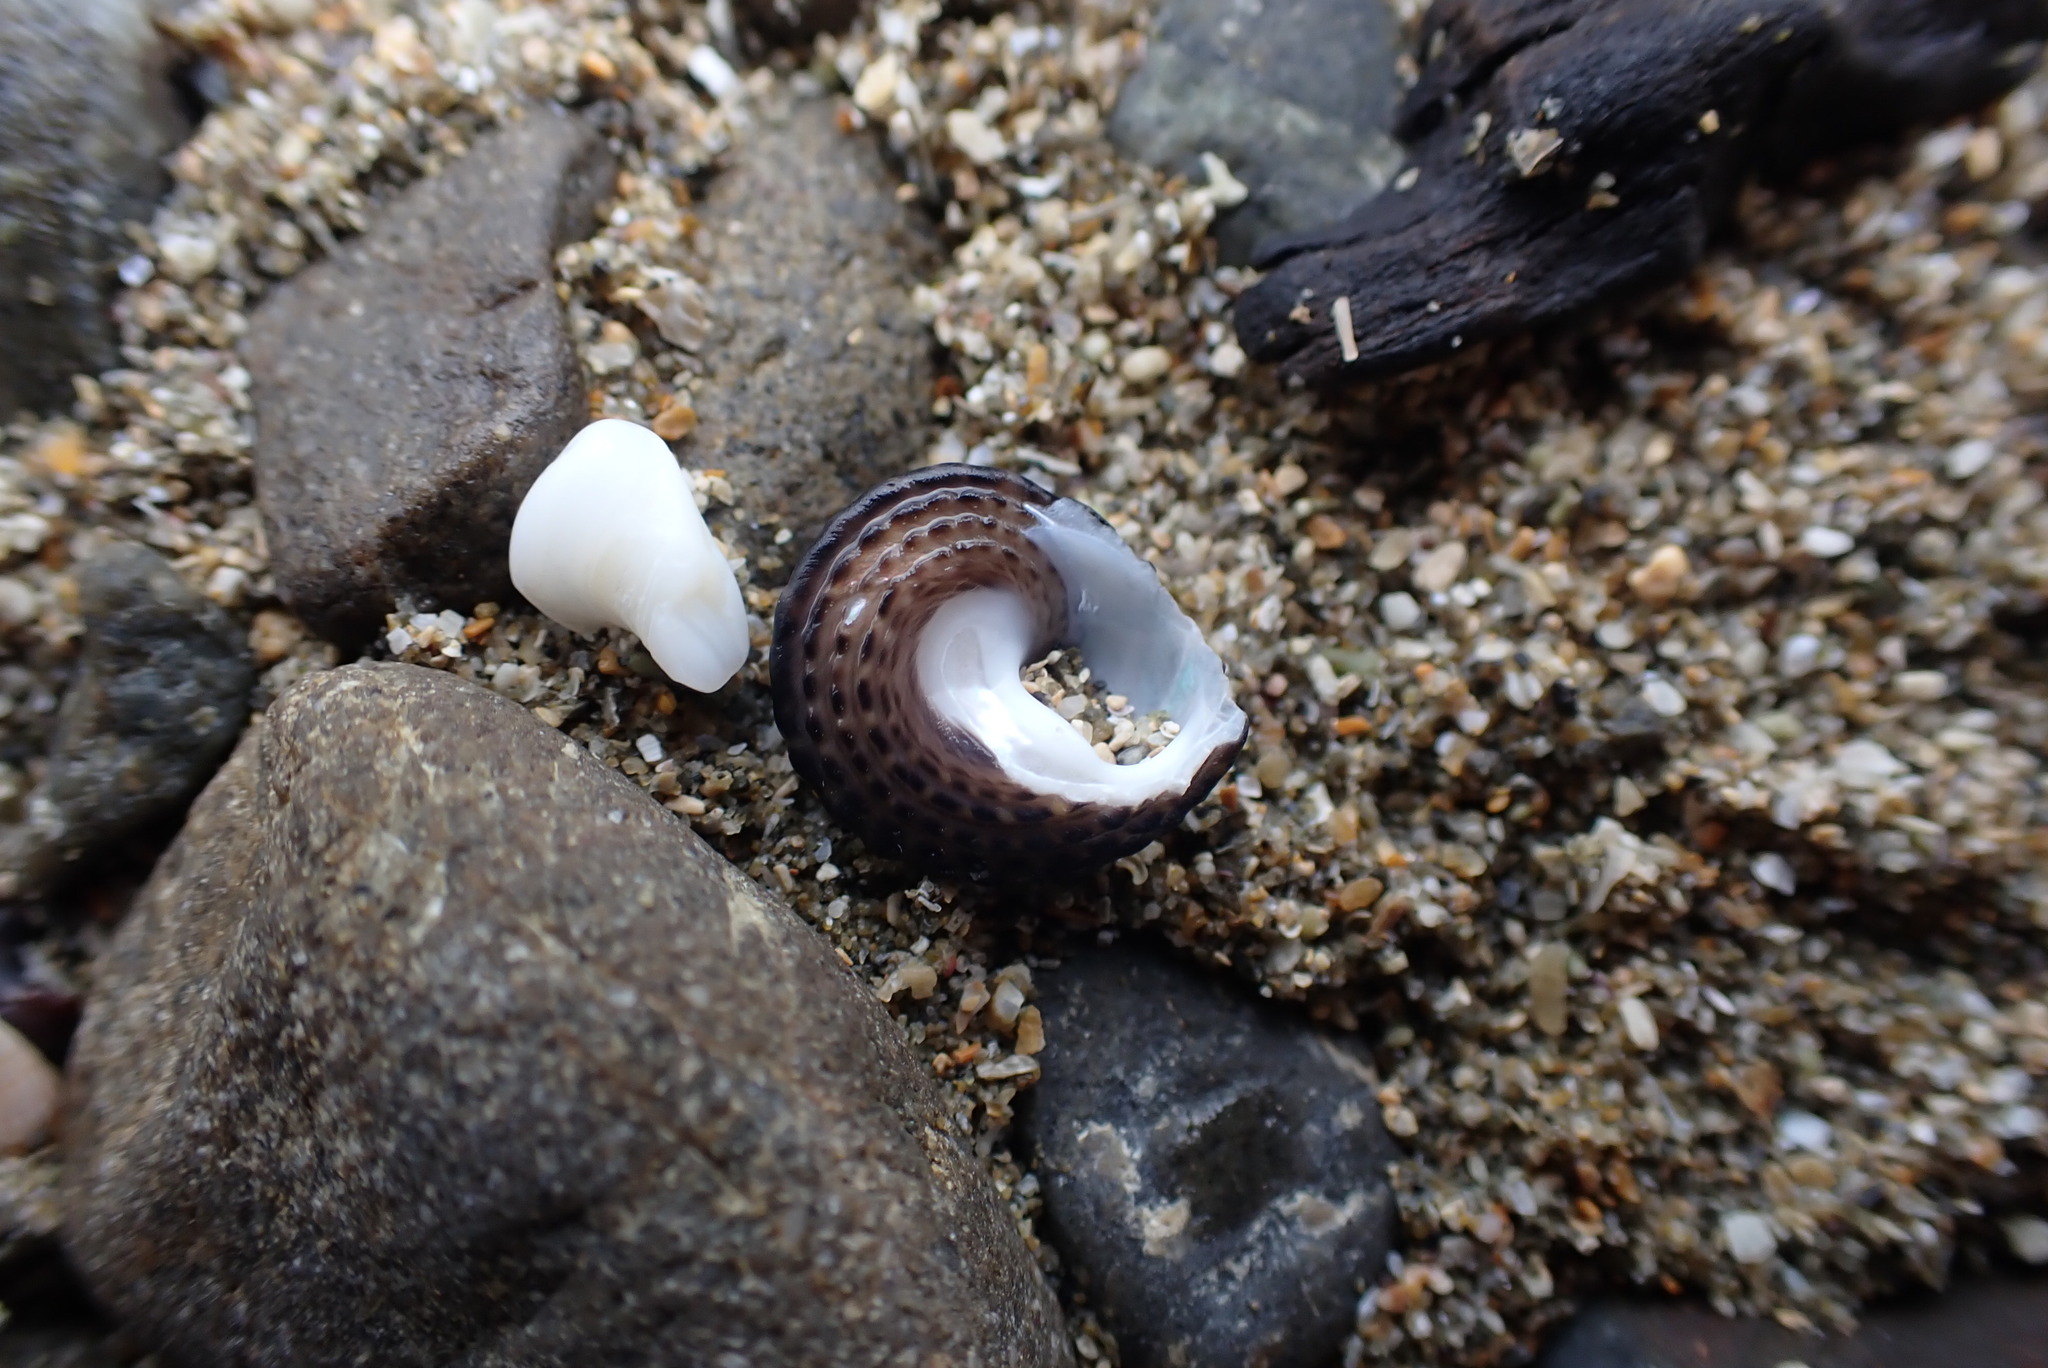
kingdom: Animalia
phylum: Mollusca
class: Gastropoda
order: Trochida
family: Trochidae
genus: Diloma
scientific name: Diloma bicanaliculatum
